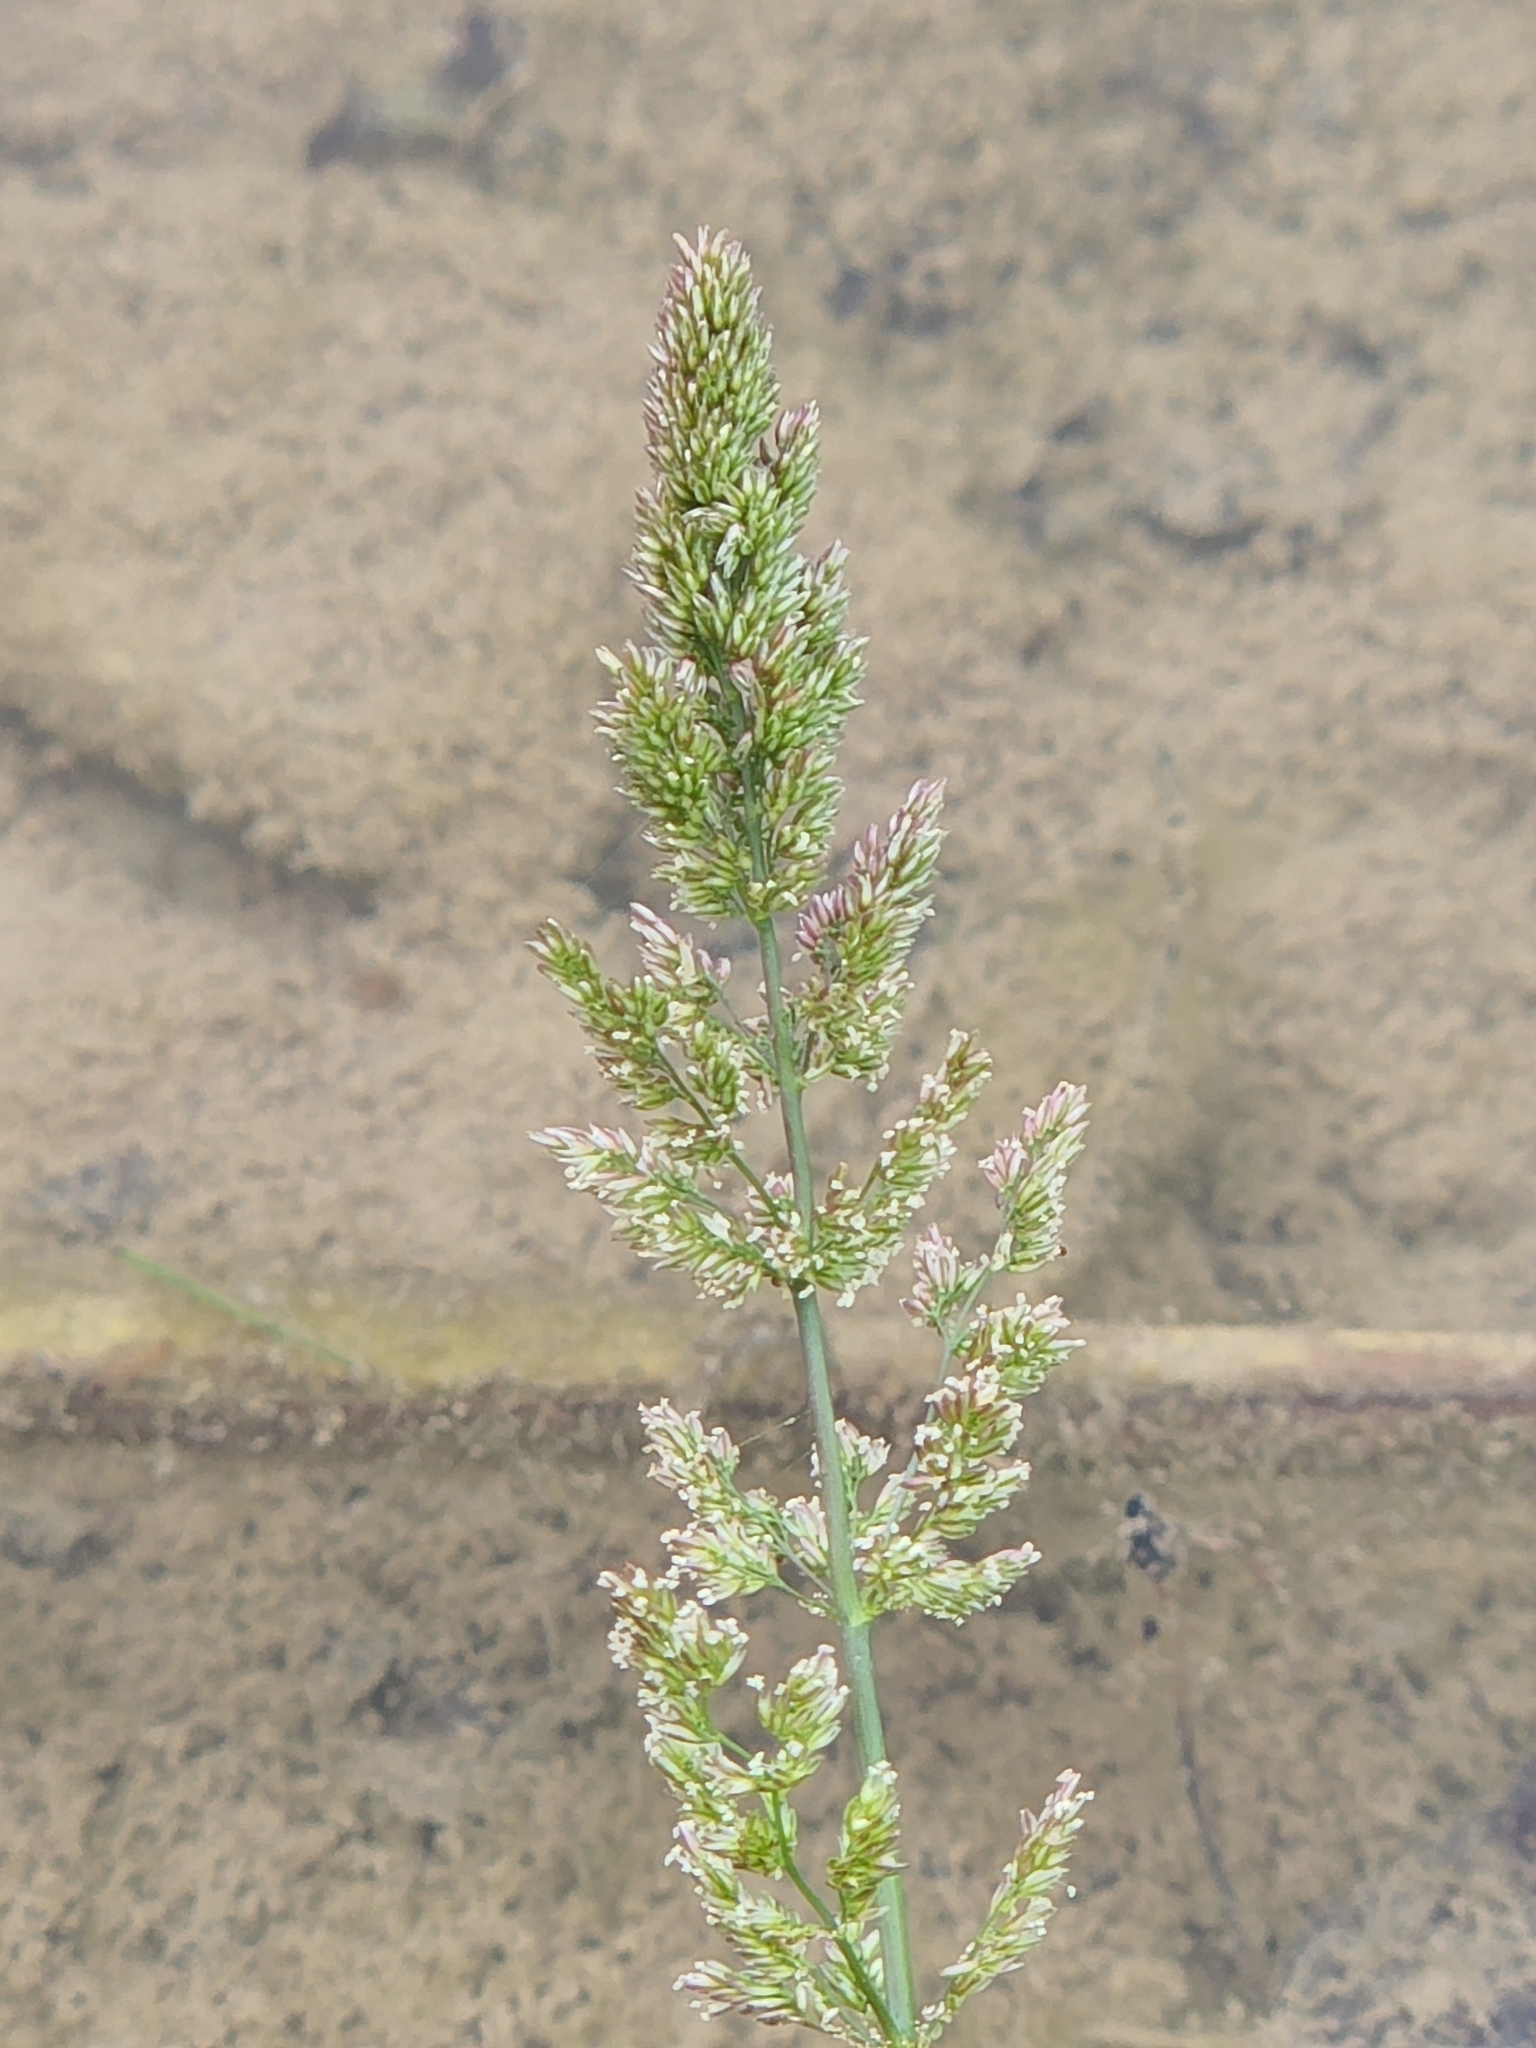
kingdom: Plantae
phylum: Tracheophyta
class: Liliopsida
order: Poales
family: Poaceae
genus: Polypogon
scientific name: Polypogon viridis
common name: Water bent
